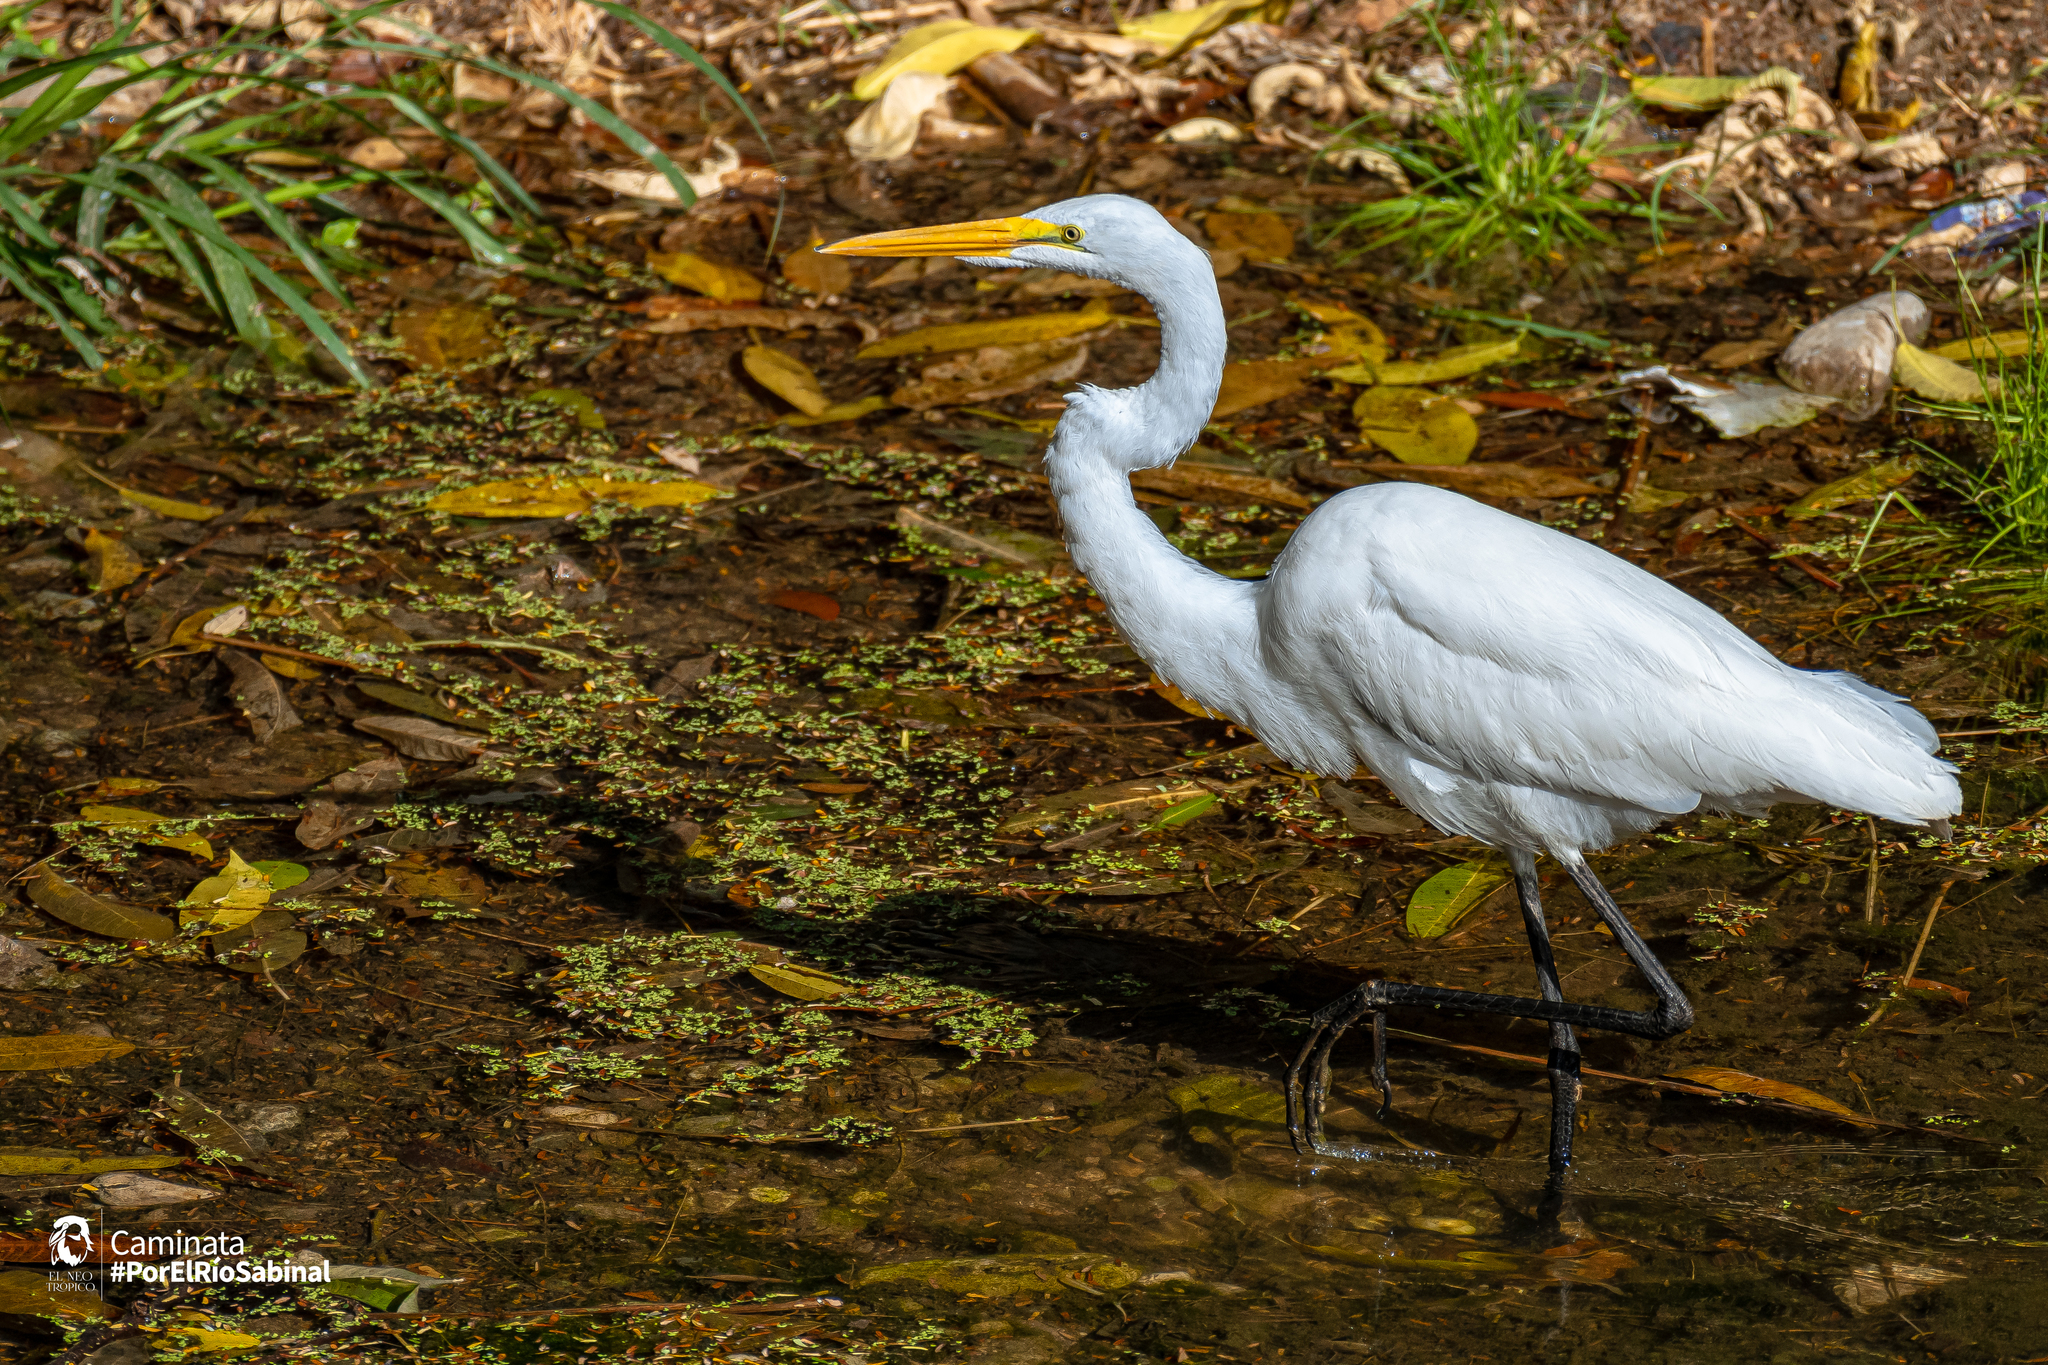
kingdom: Animalia
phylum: Chordata
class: Aves
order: Pelecaniformes
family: Ardeidae
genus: Ardea
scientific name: Ardea alba
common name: Great egret
